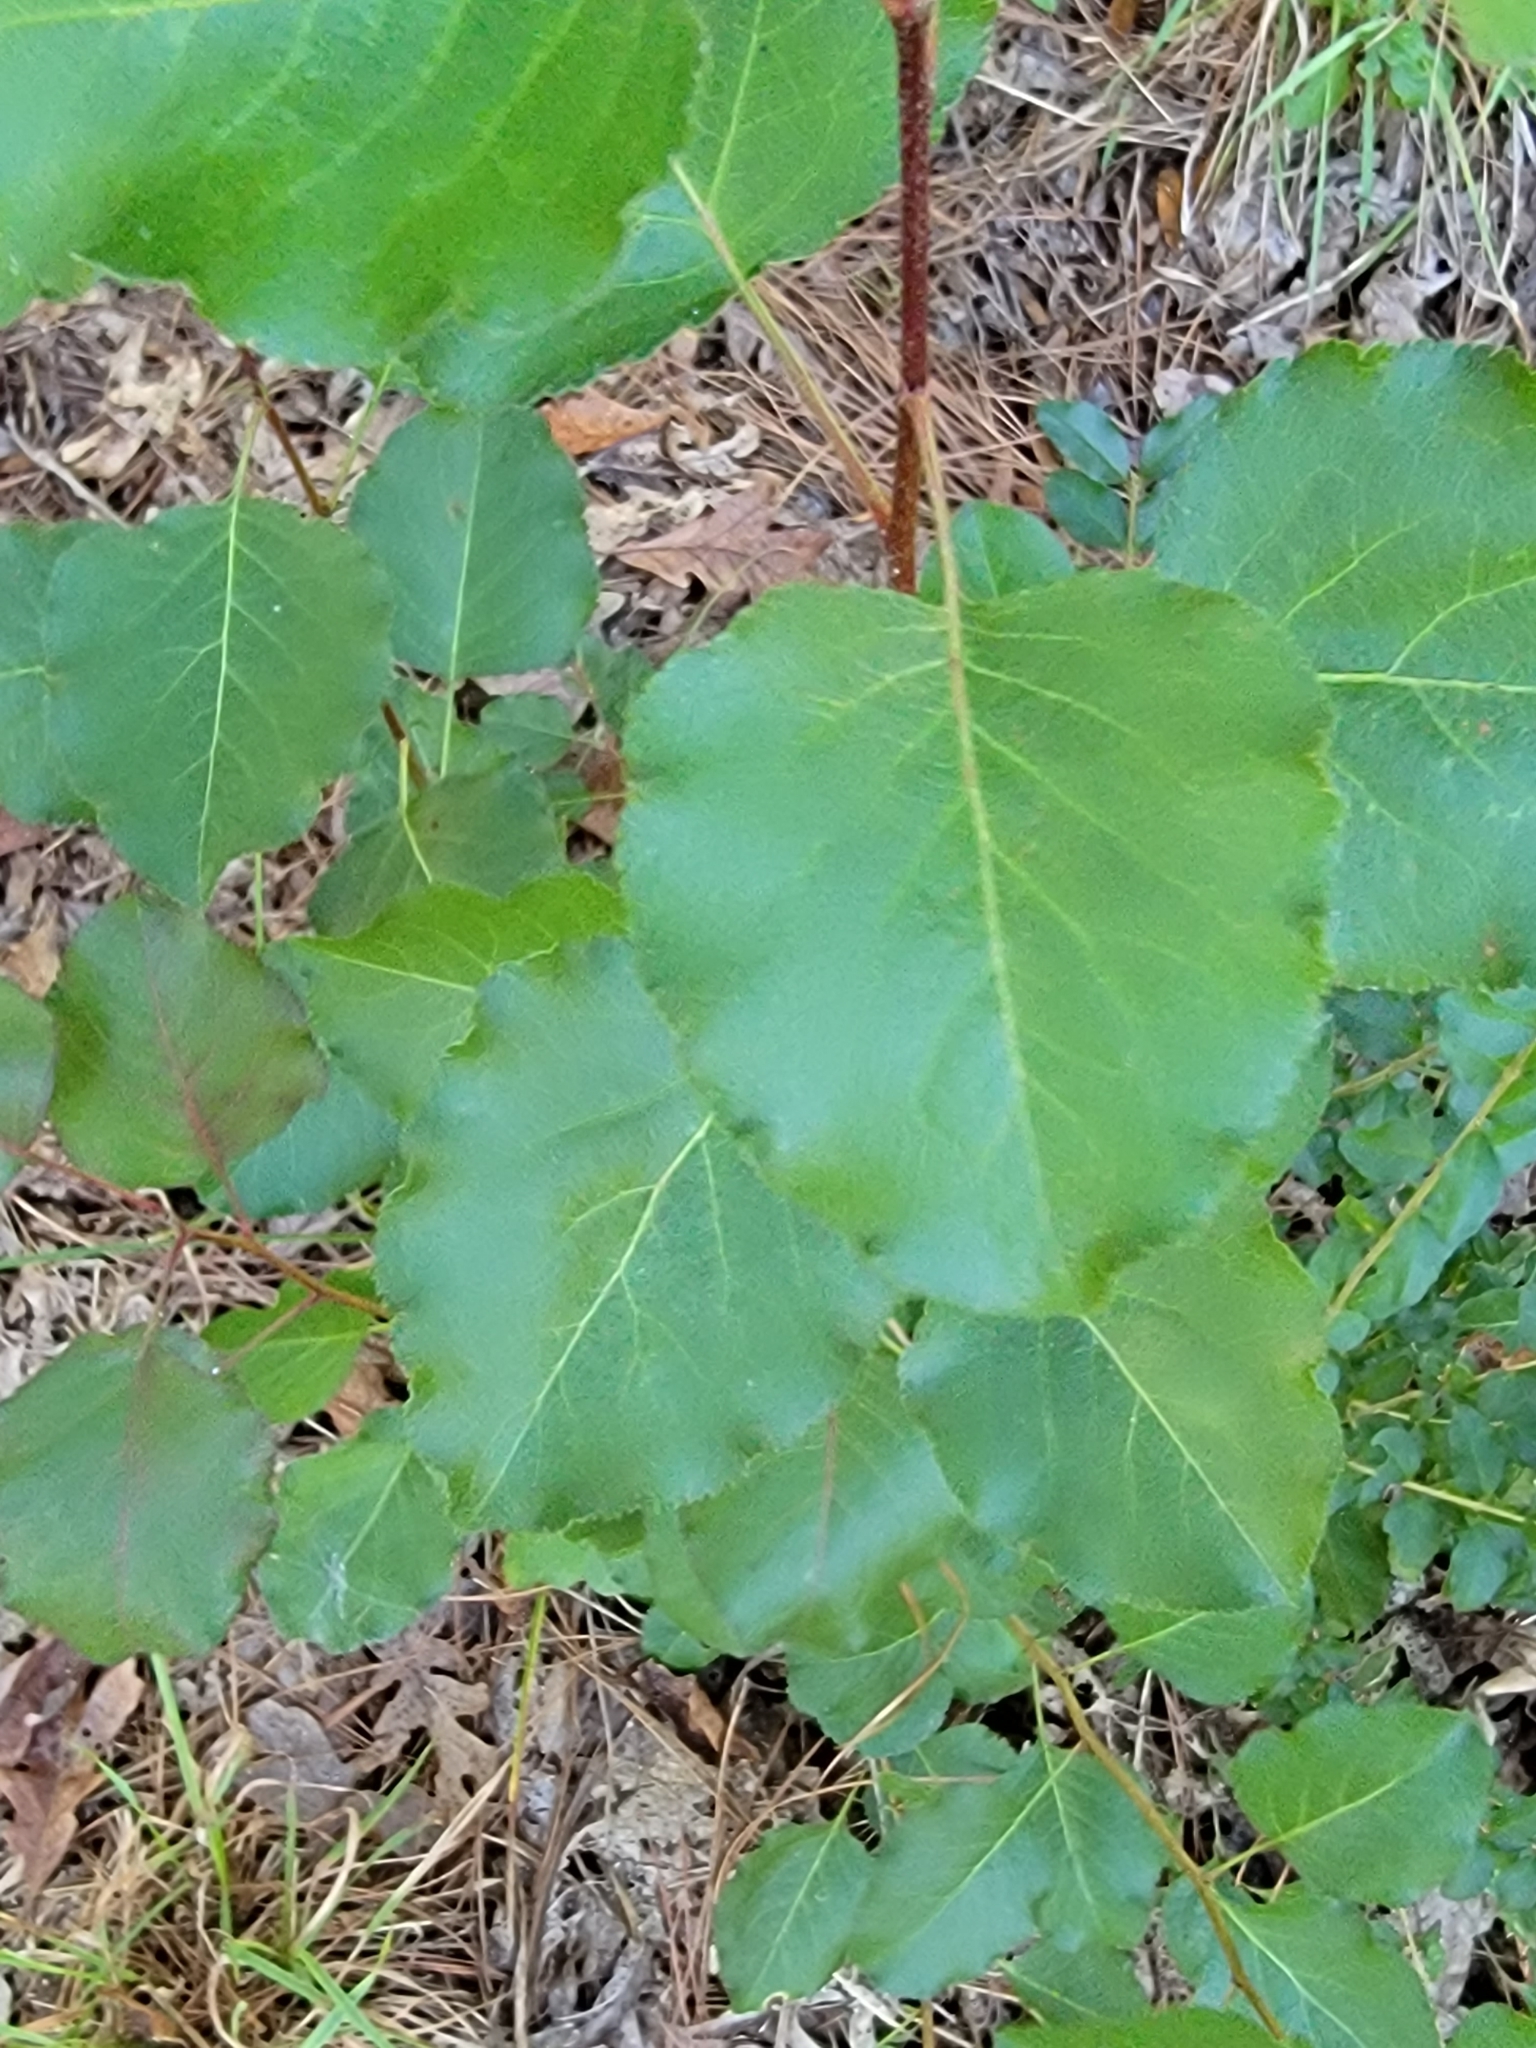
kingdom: Plantae
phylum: Tracheophyta
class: Magnoliopsida
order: Rosales
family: Rosaceae
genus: Pyrus
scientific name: Pyrus calleryana
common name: Callery pear
